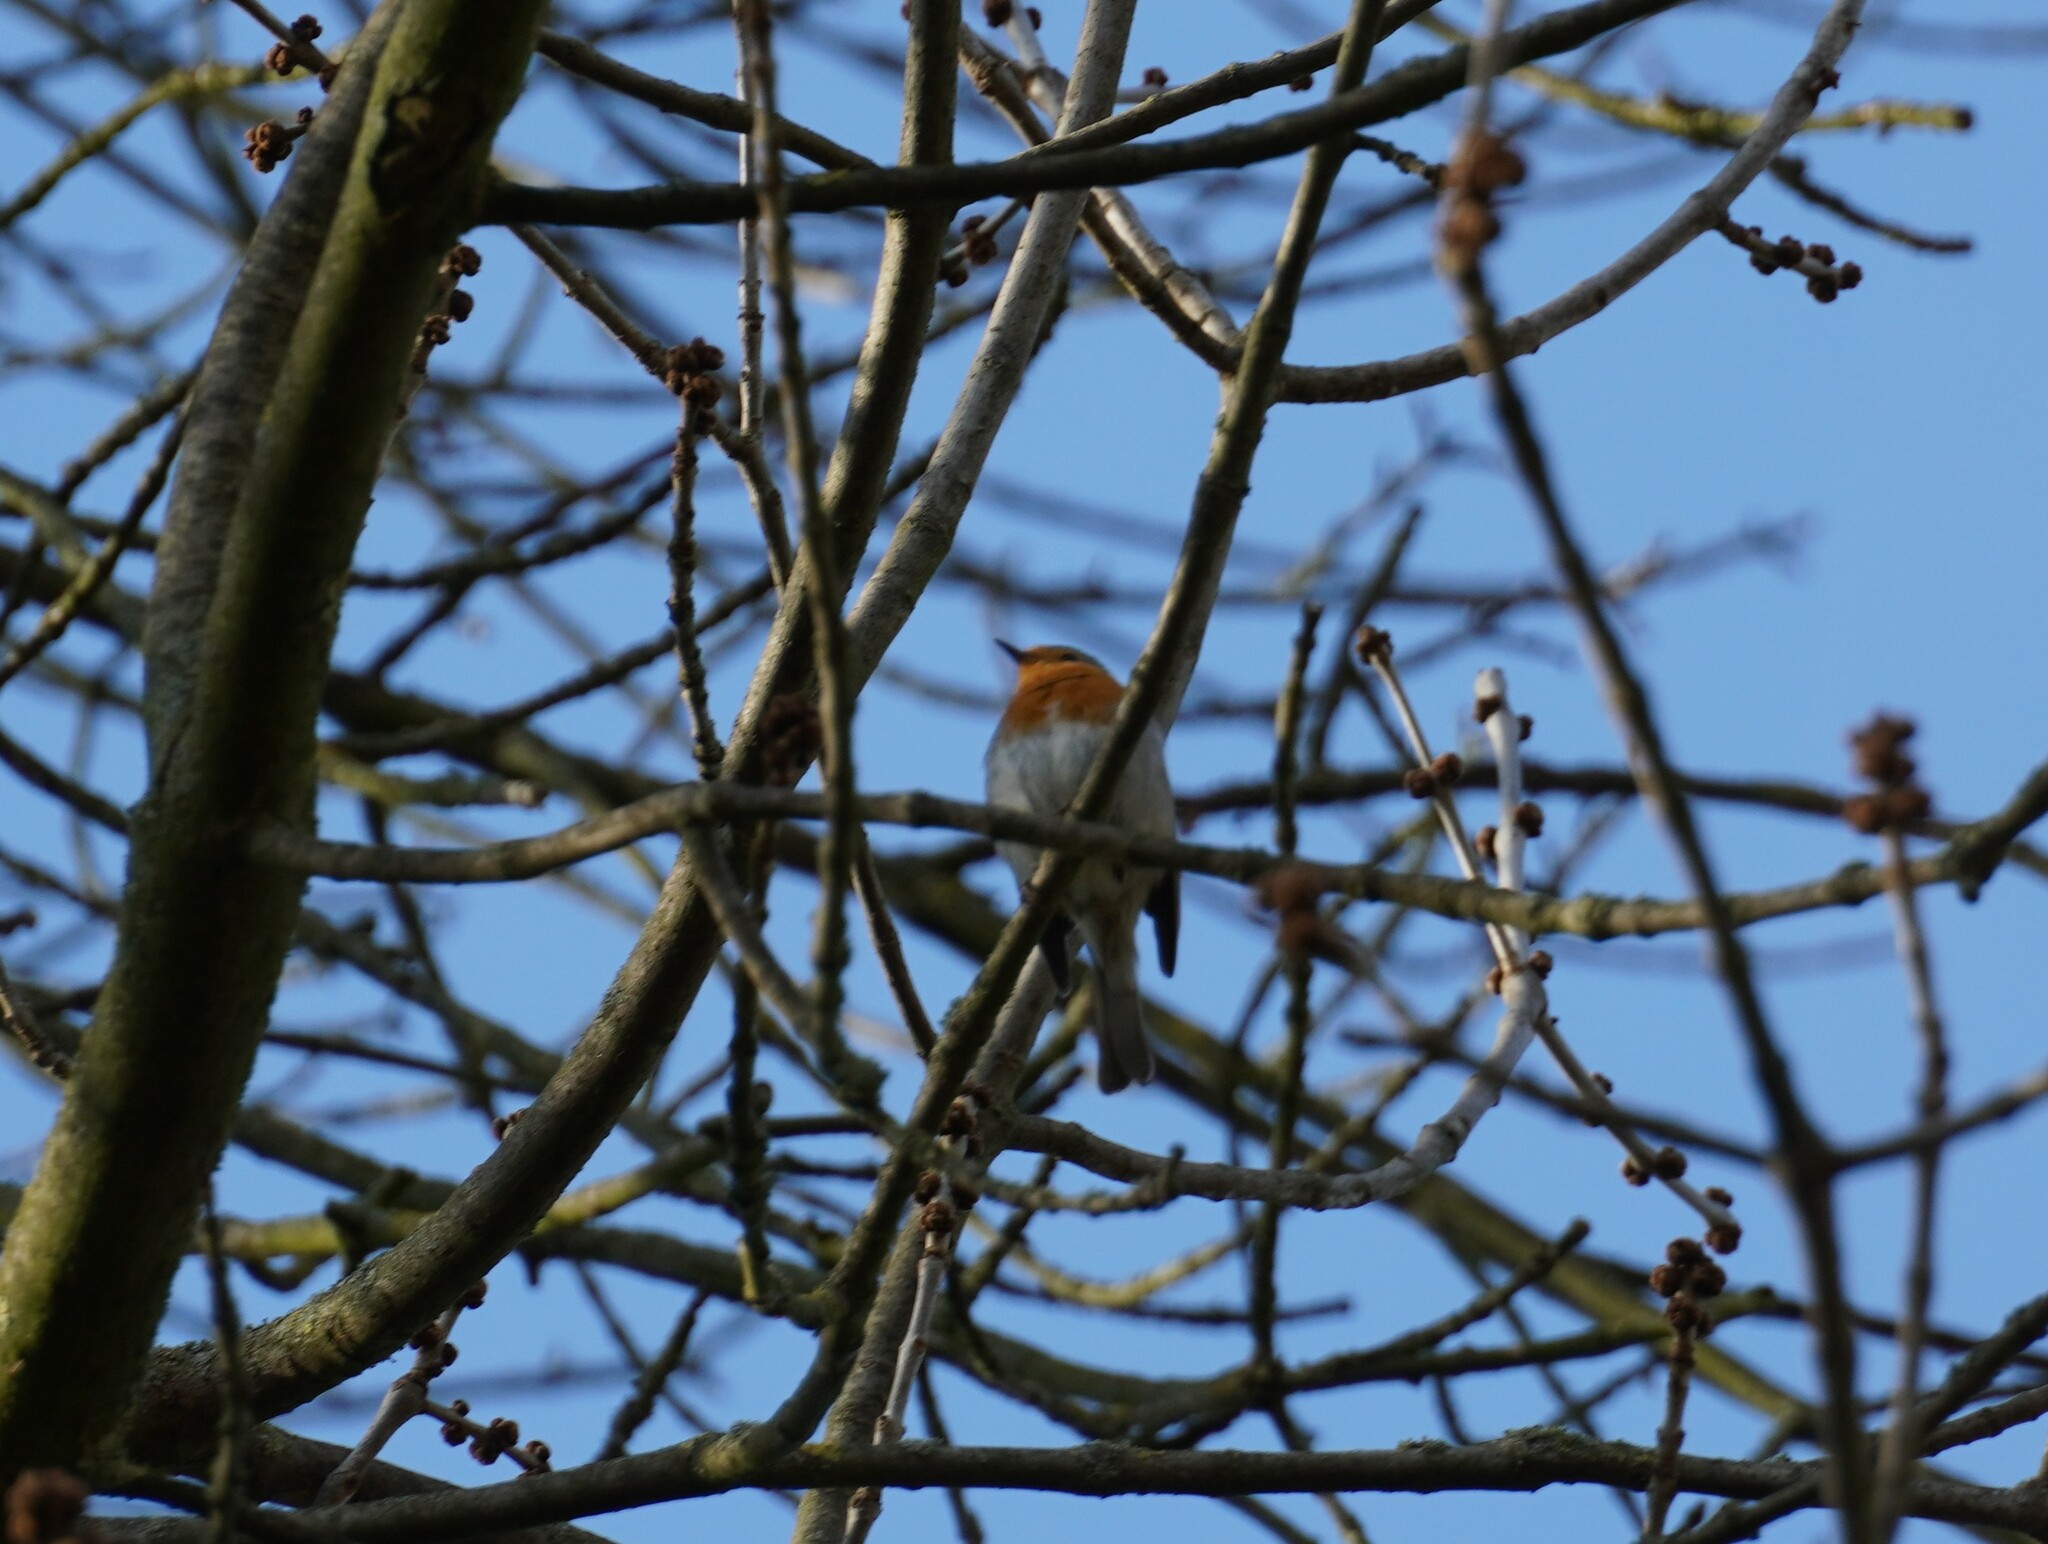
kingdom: Animalia
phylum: Chordata
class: Aves
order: Passeriformes
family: Muscicapidae
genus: Erithacus
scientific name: Erithacus rubecula
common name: European robin
